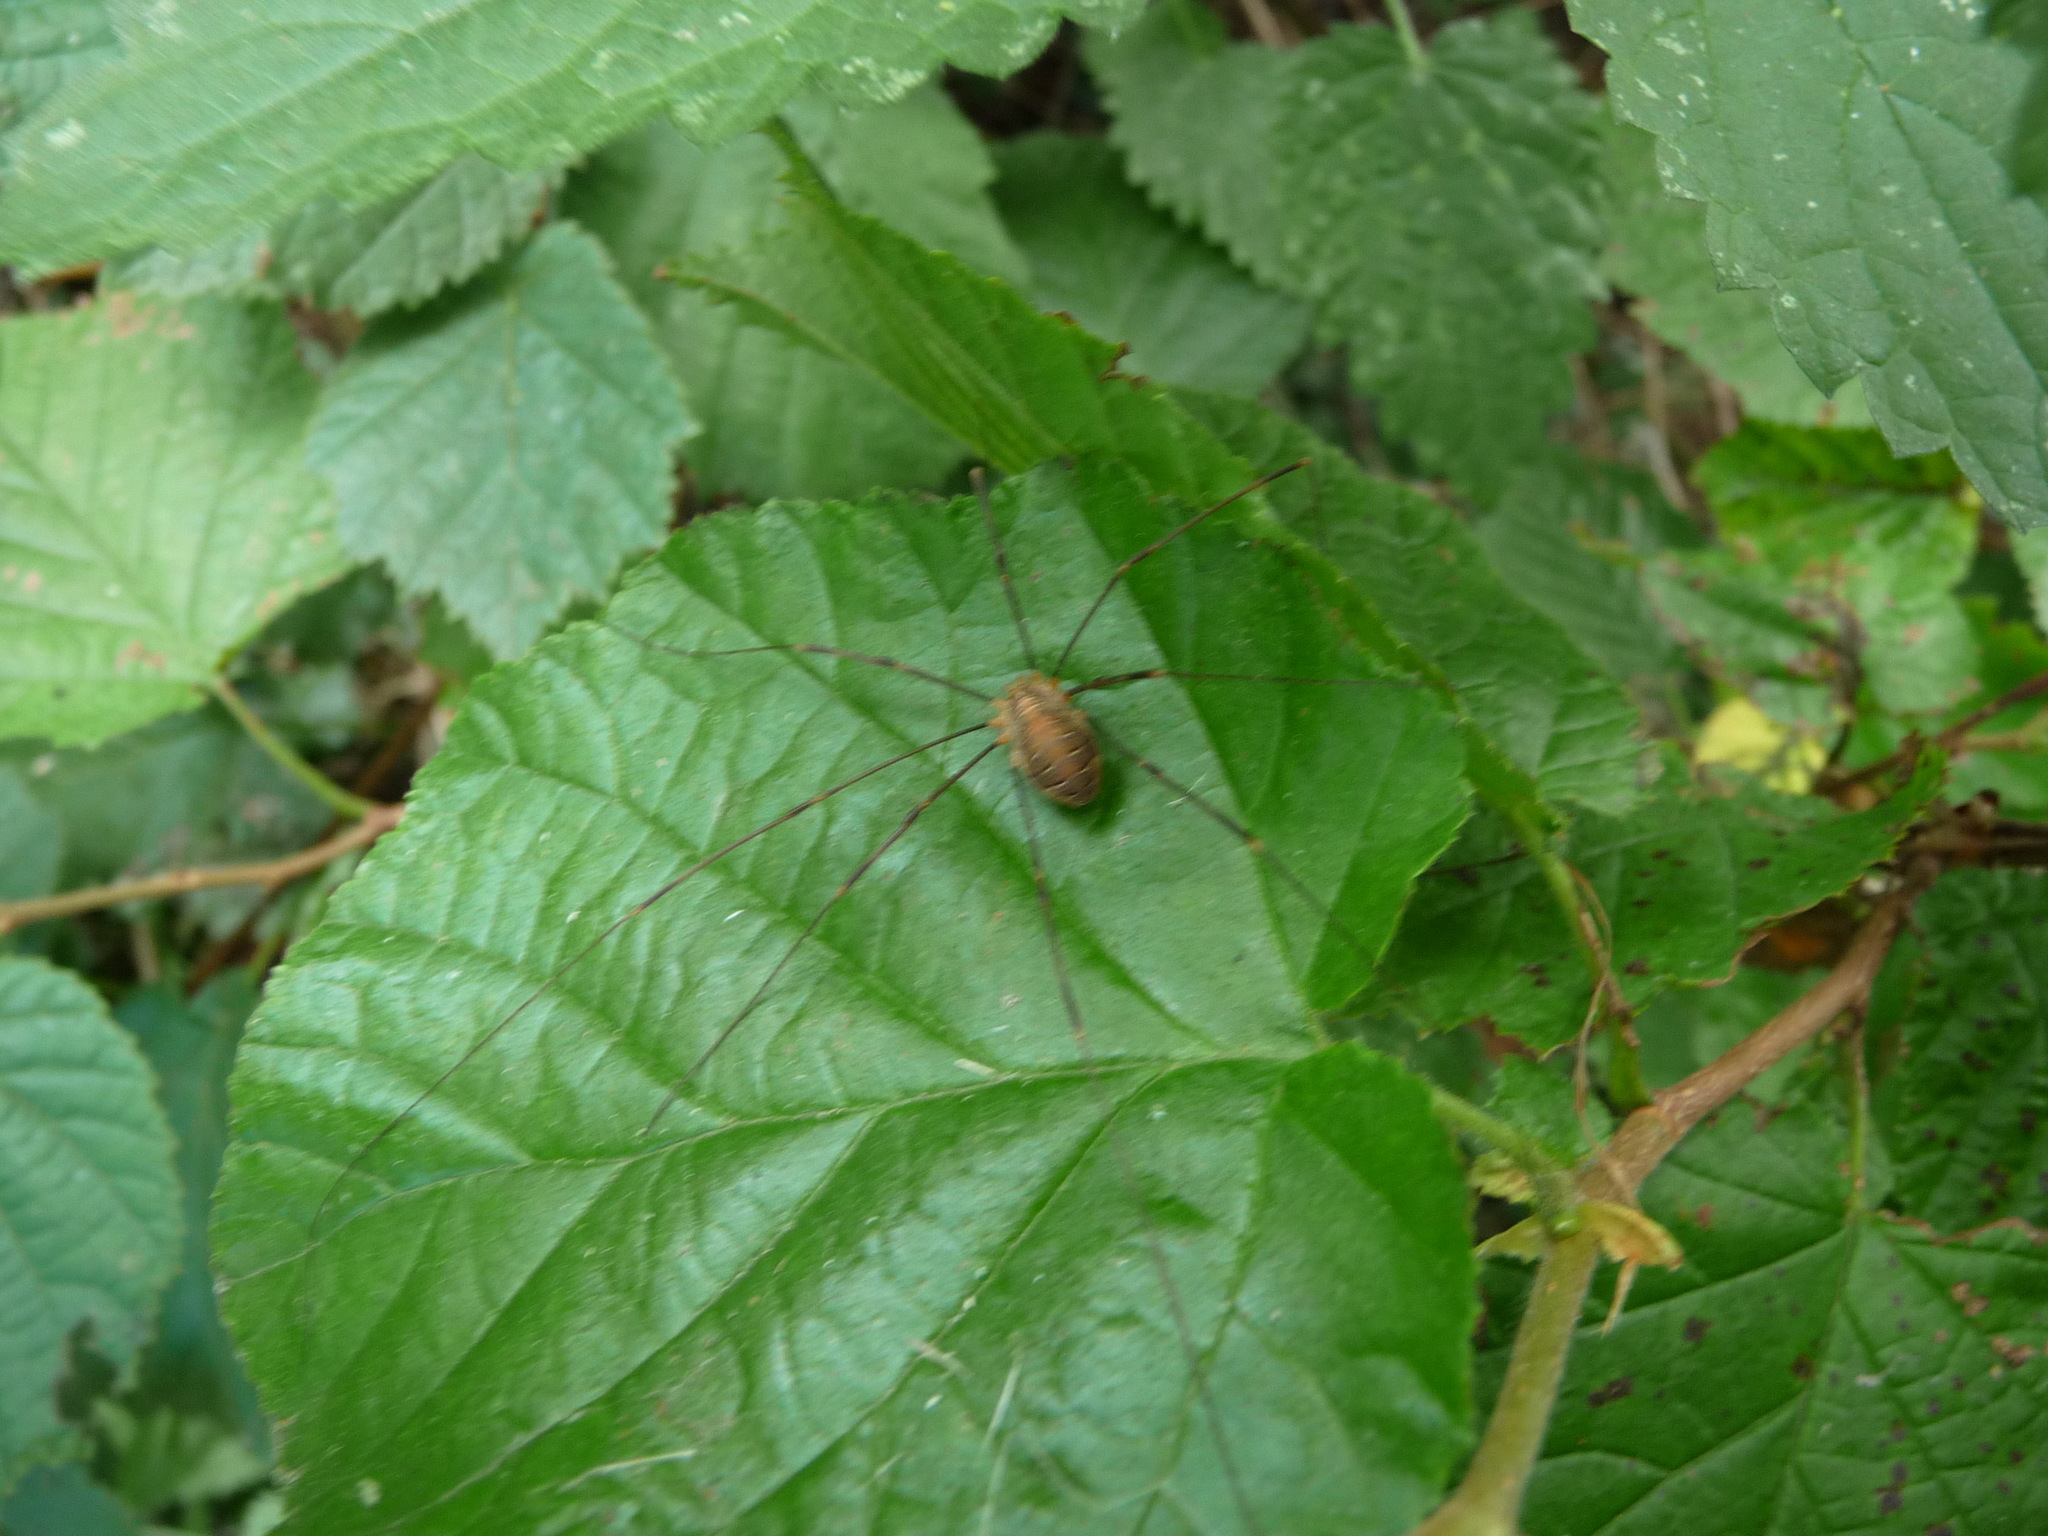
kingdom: Animalia
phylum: Arthropoda
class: Arachnida
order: Opiliones
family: Phalangiidae
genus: Opilio
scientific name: Opilio canestrinii
